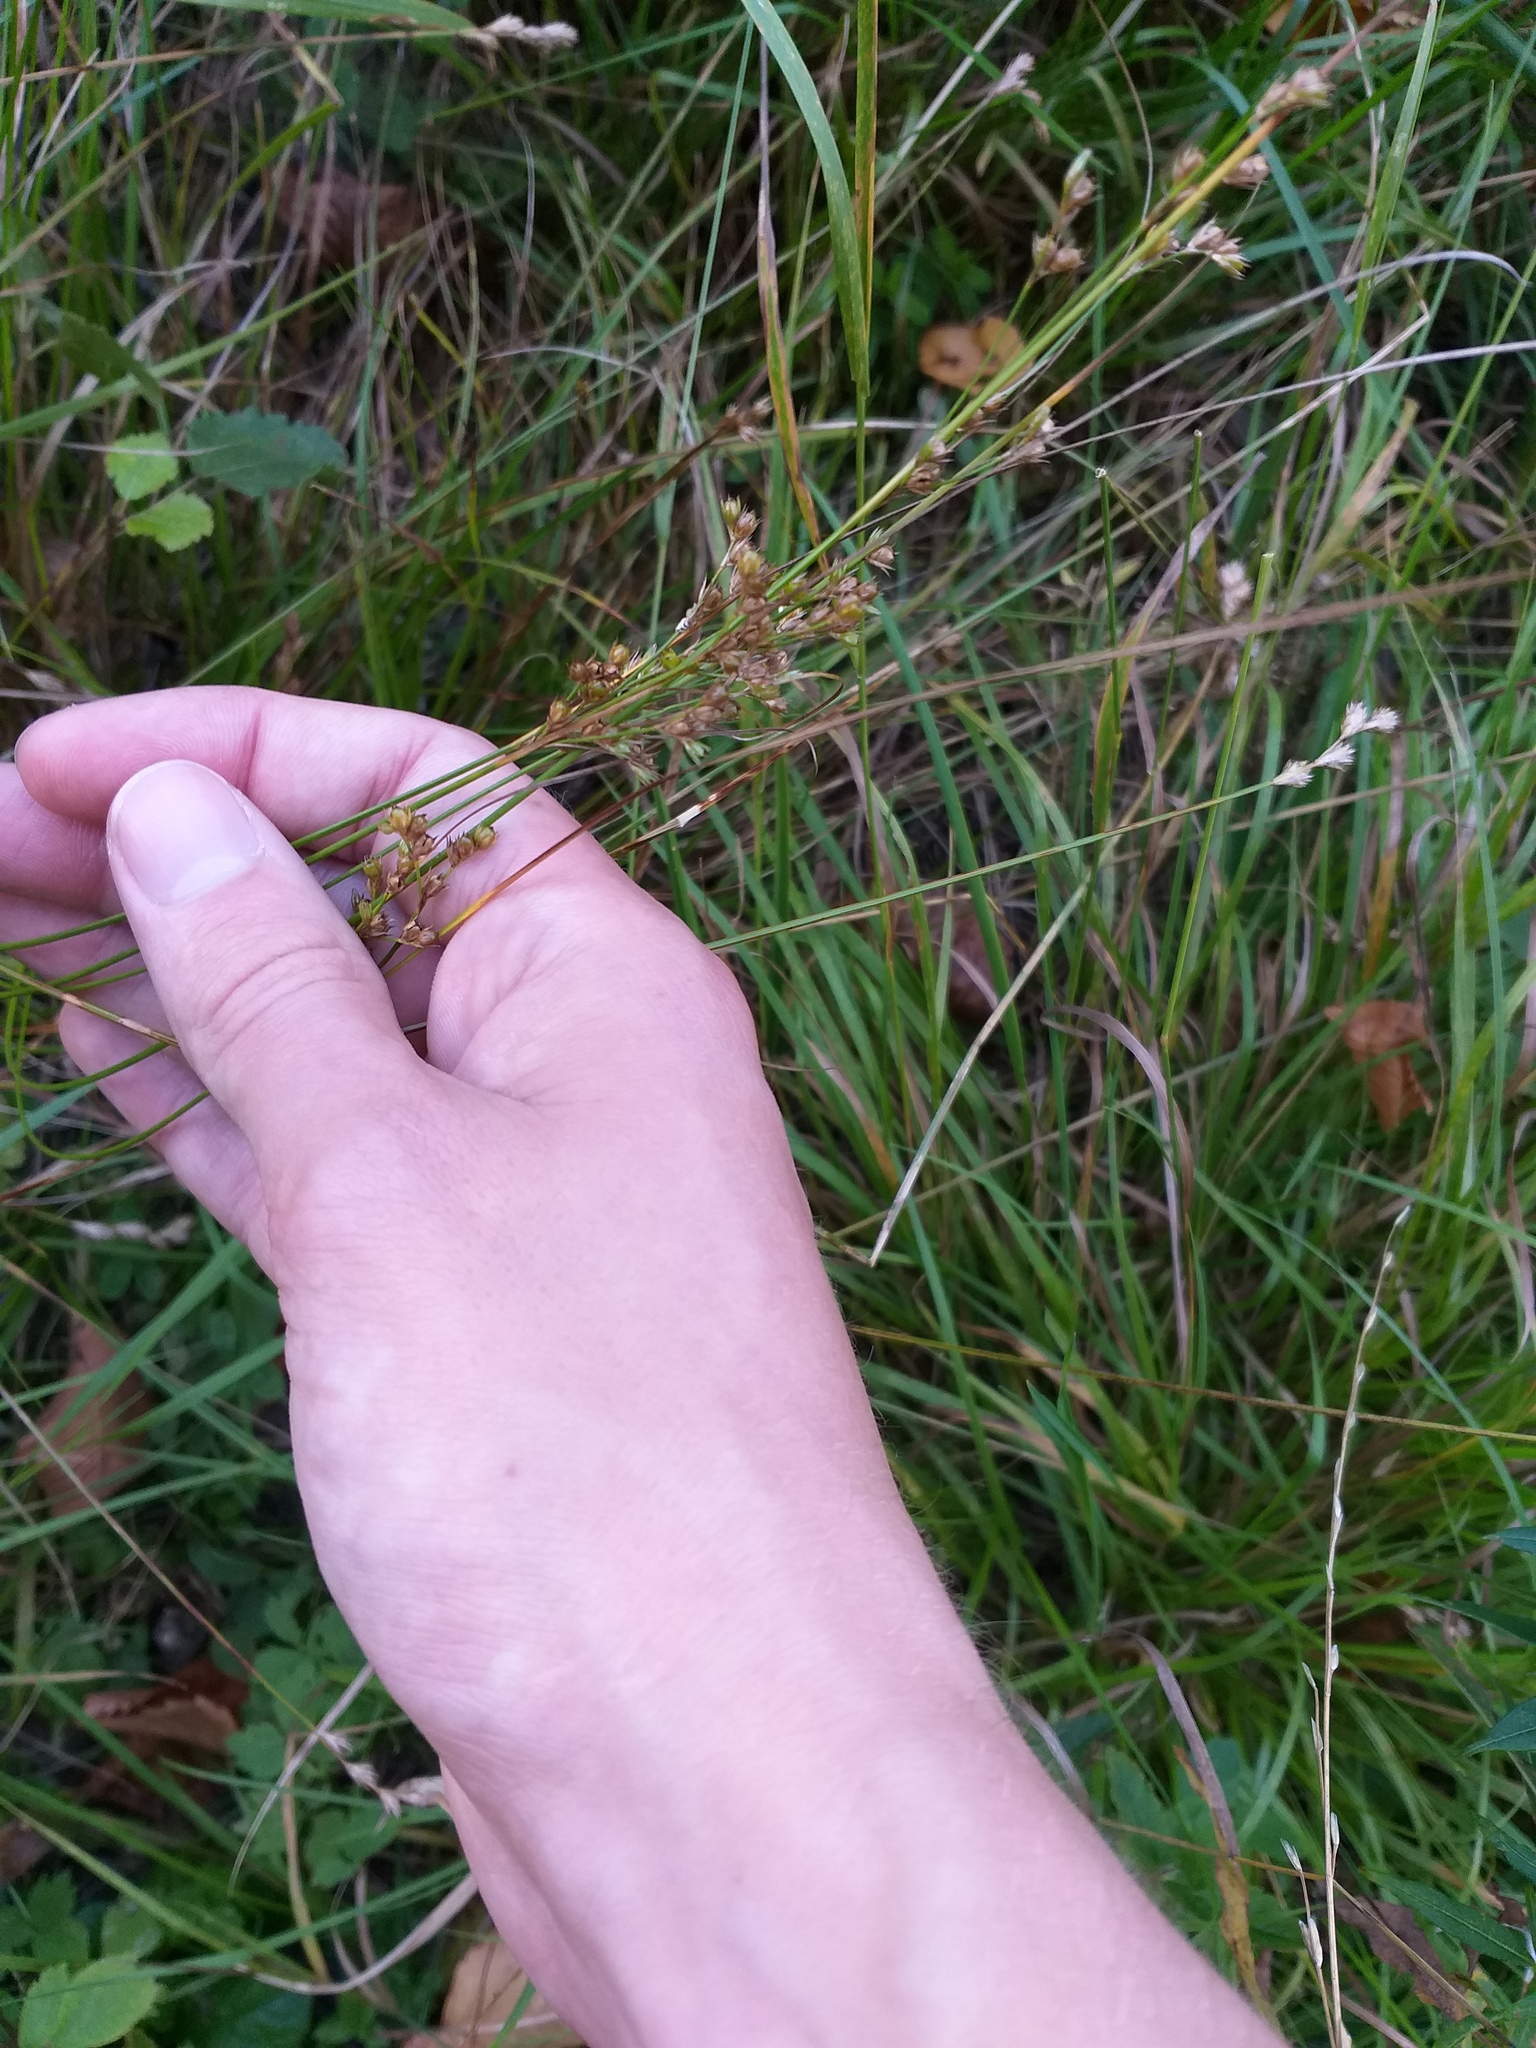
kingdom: Plantae
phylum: Tracheophyta
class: Liliopsida
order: Poales
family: Juncaceae
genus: Juncus
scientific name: Juncus tenuis
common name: Slender rush
